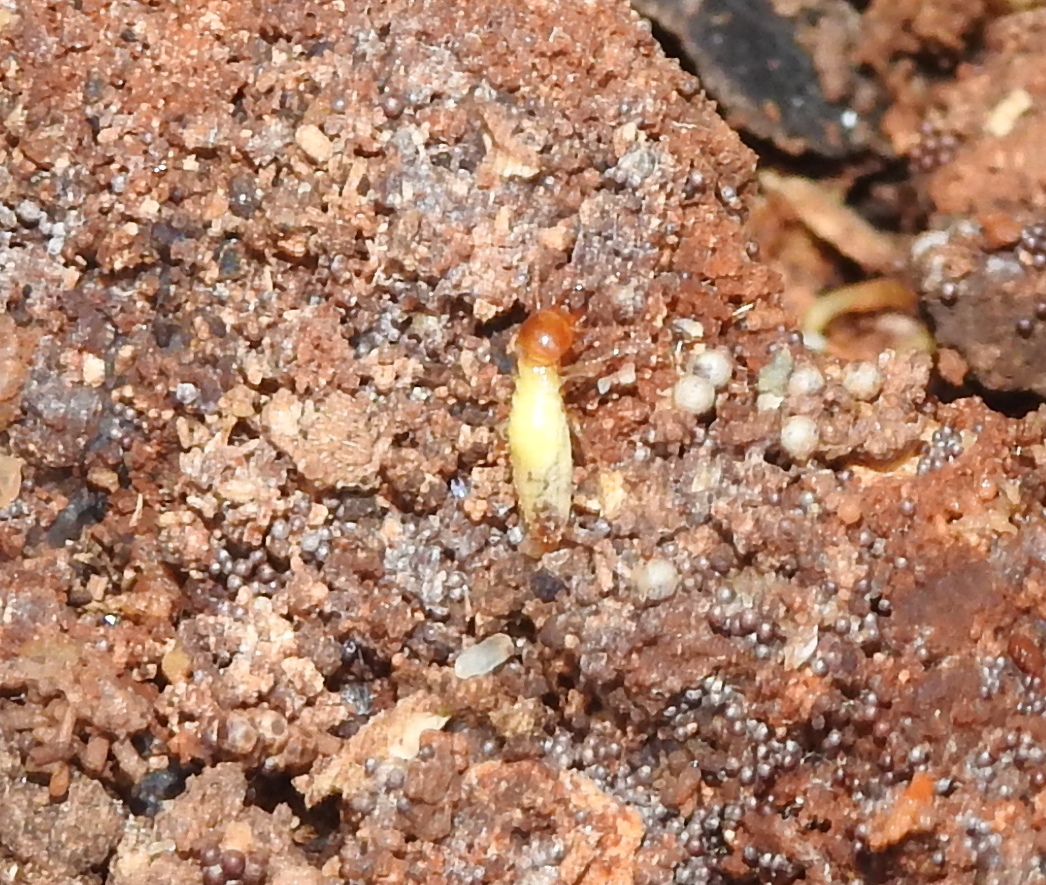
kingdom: Animalia
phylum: Arthropoda
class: Insecta
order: Blattodea
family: Termitidae
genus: Globitermes
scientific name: Globitermes sulphureus
